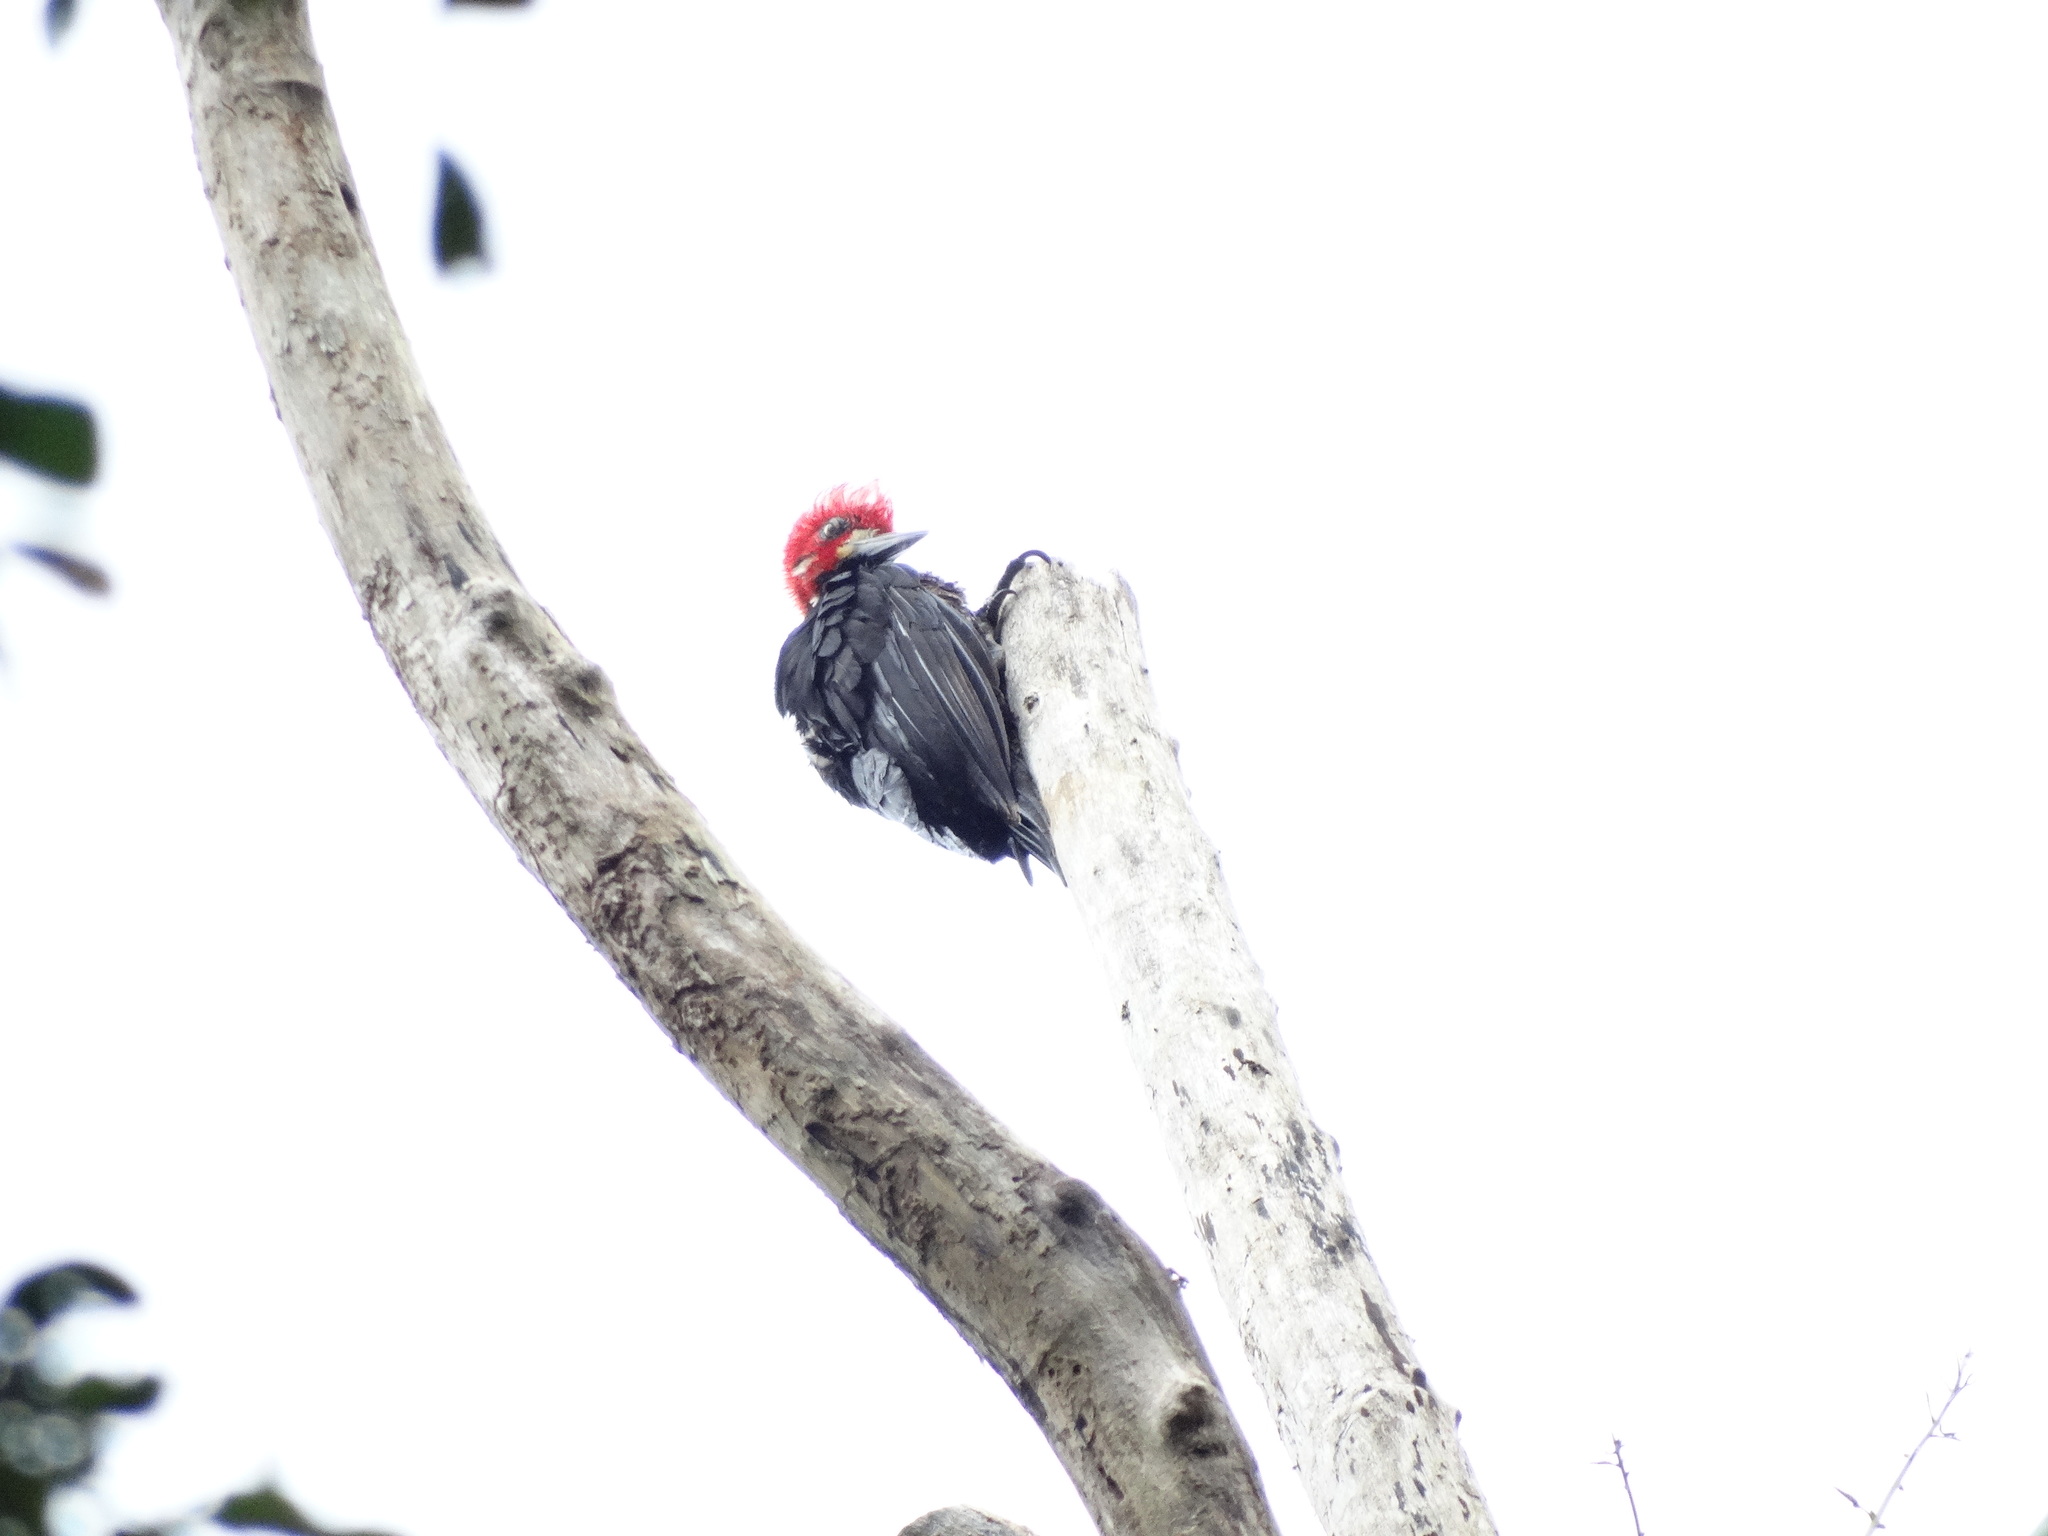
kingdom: Animalia
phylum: Chordata
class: Aves
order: Piciformes
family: Picidae
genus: Campephilus
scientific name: Campephilus melanoleucos
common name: Crimson-crested woodpecker
